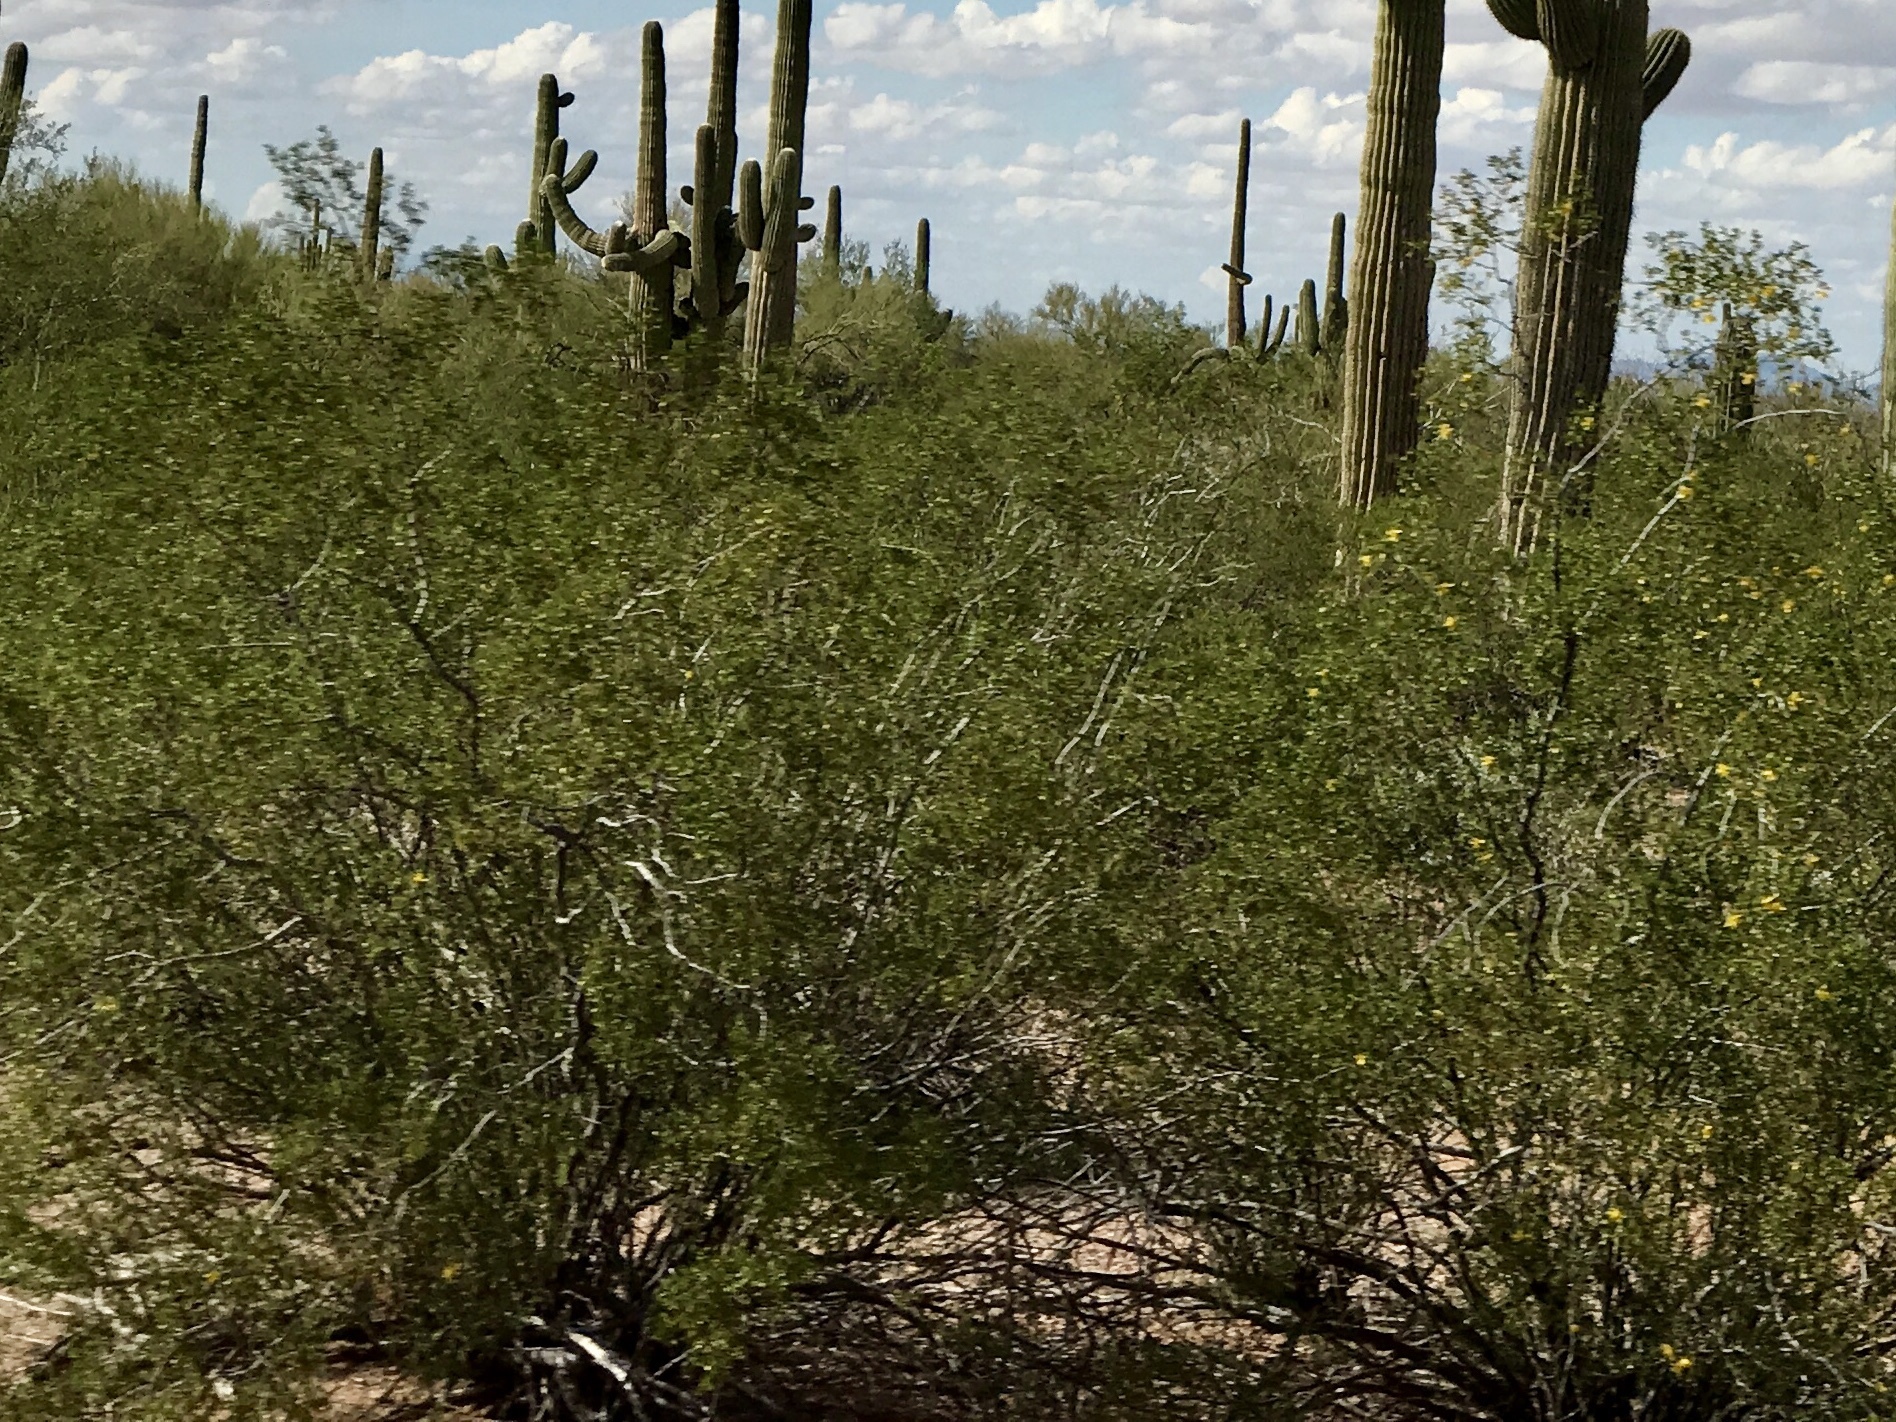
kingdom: Plantae
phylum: Tracheophyta
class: Magnoliopsida
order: Zygophyllales
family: Zygophyllaceae
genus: Larrea
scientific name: Larrea tridentata
